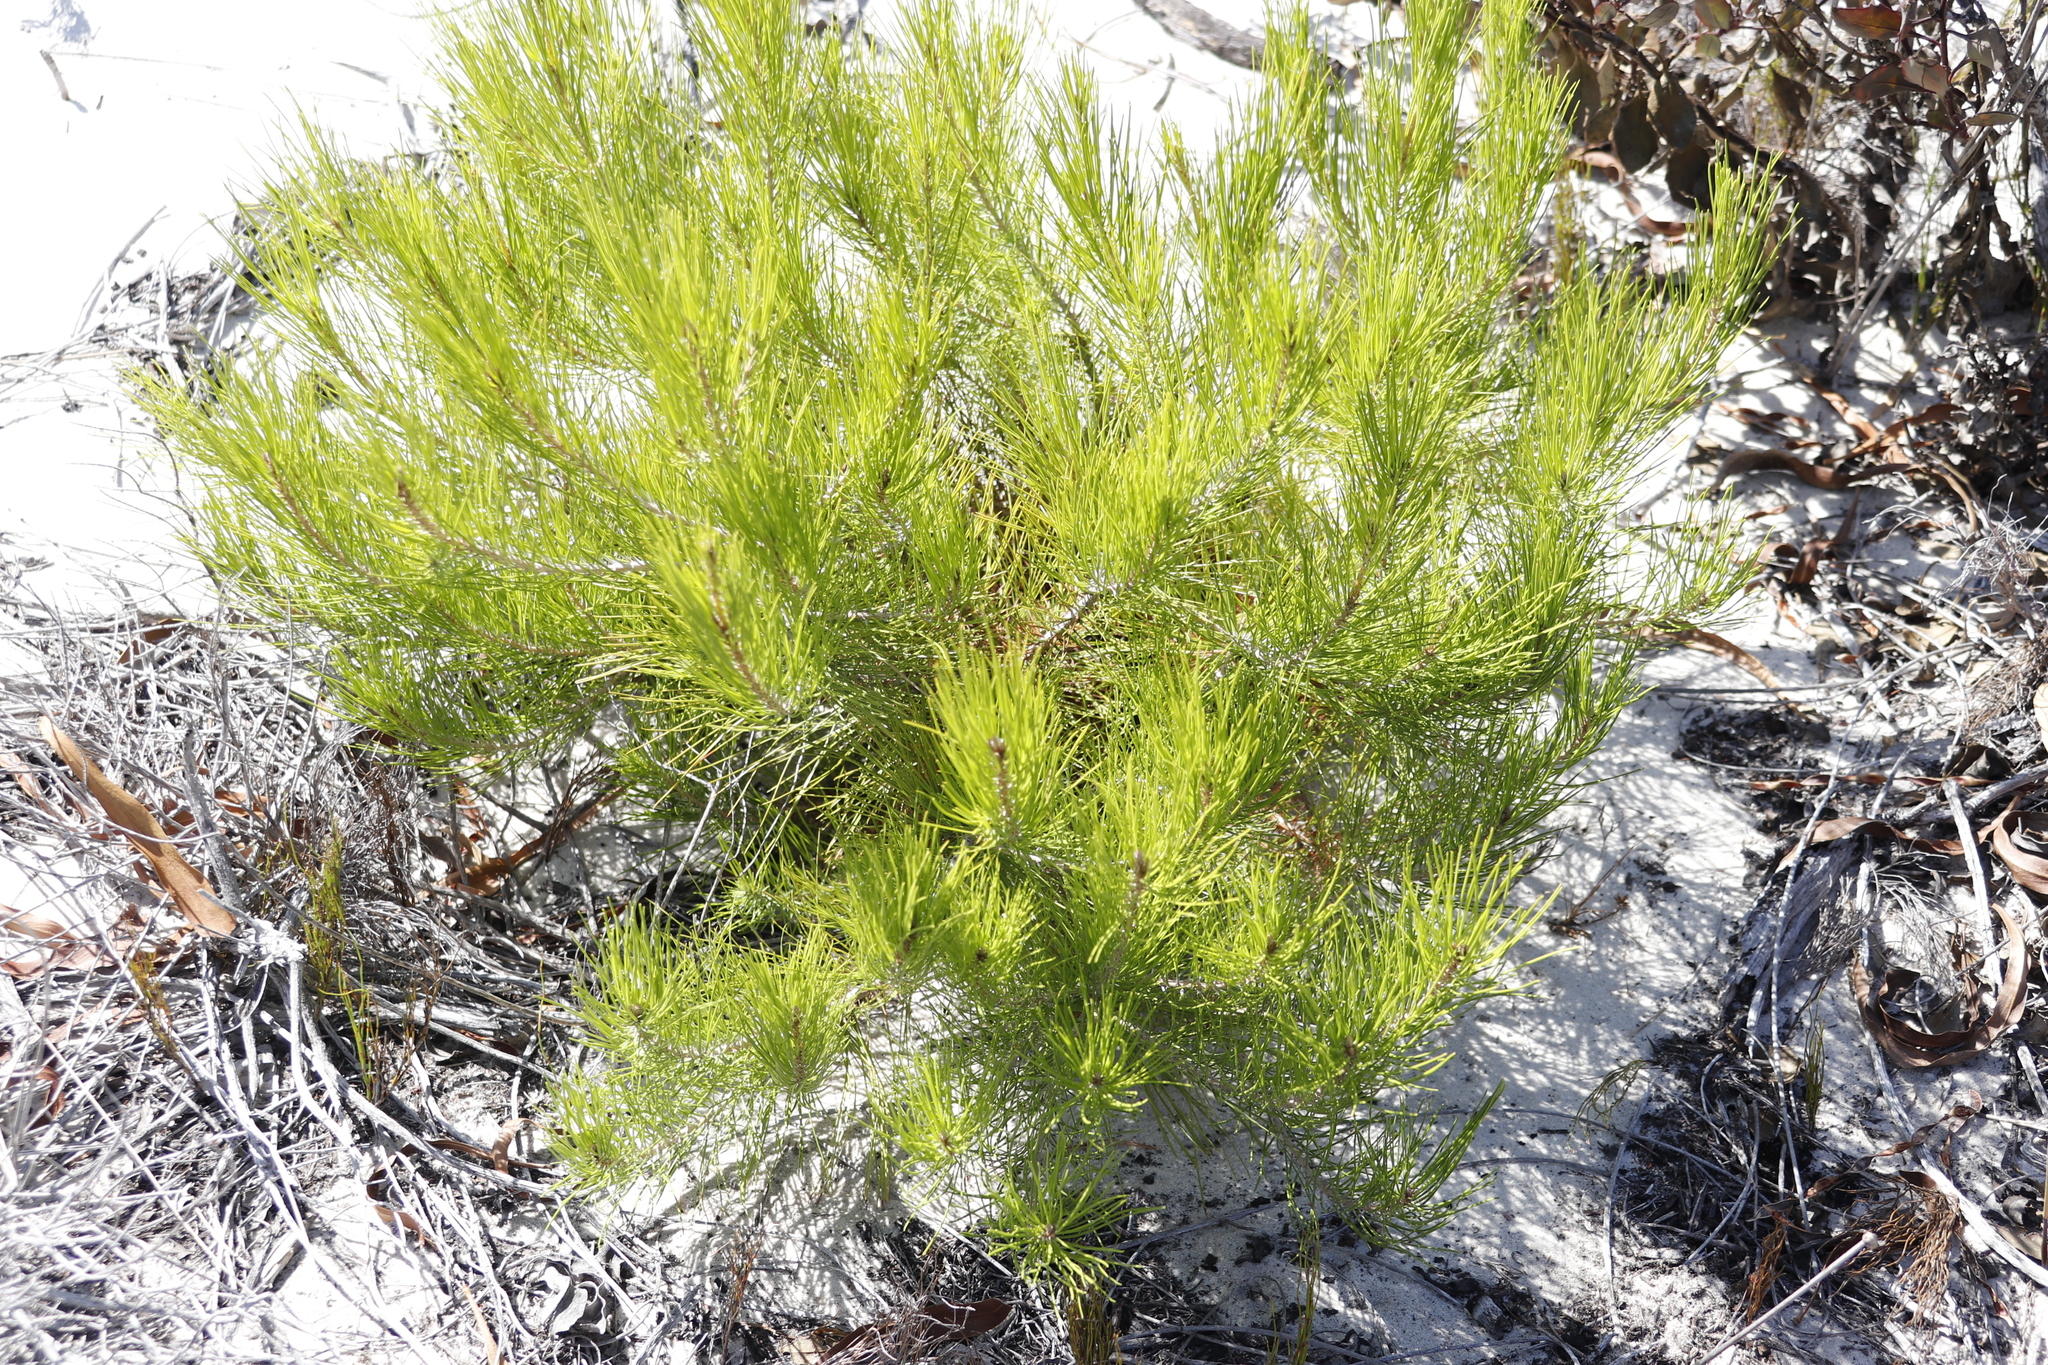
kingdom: Plantae
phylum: Tracheophyta
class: Pinopsida
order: Pinales
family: Pinaceae
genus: Pinus
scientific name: Pinus halepensis
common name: Aleppo pine
